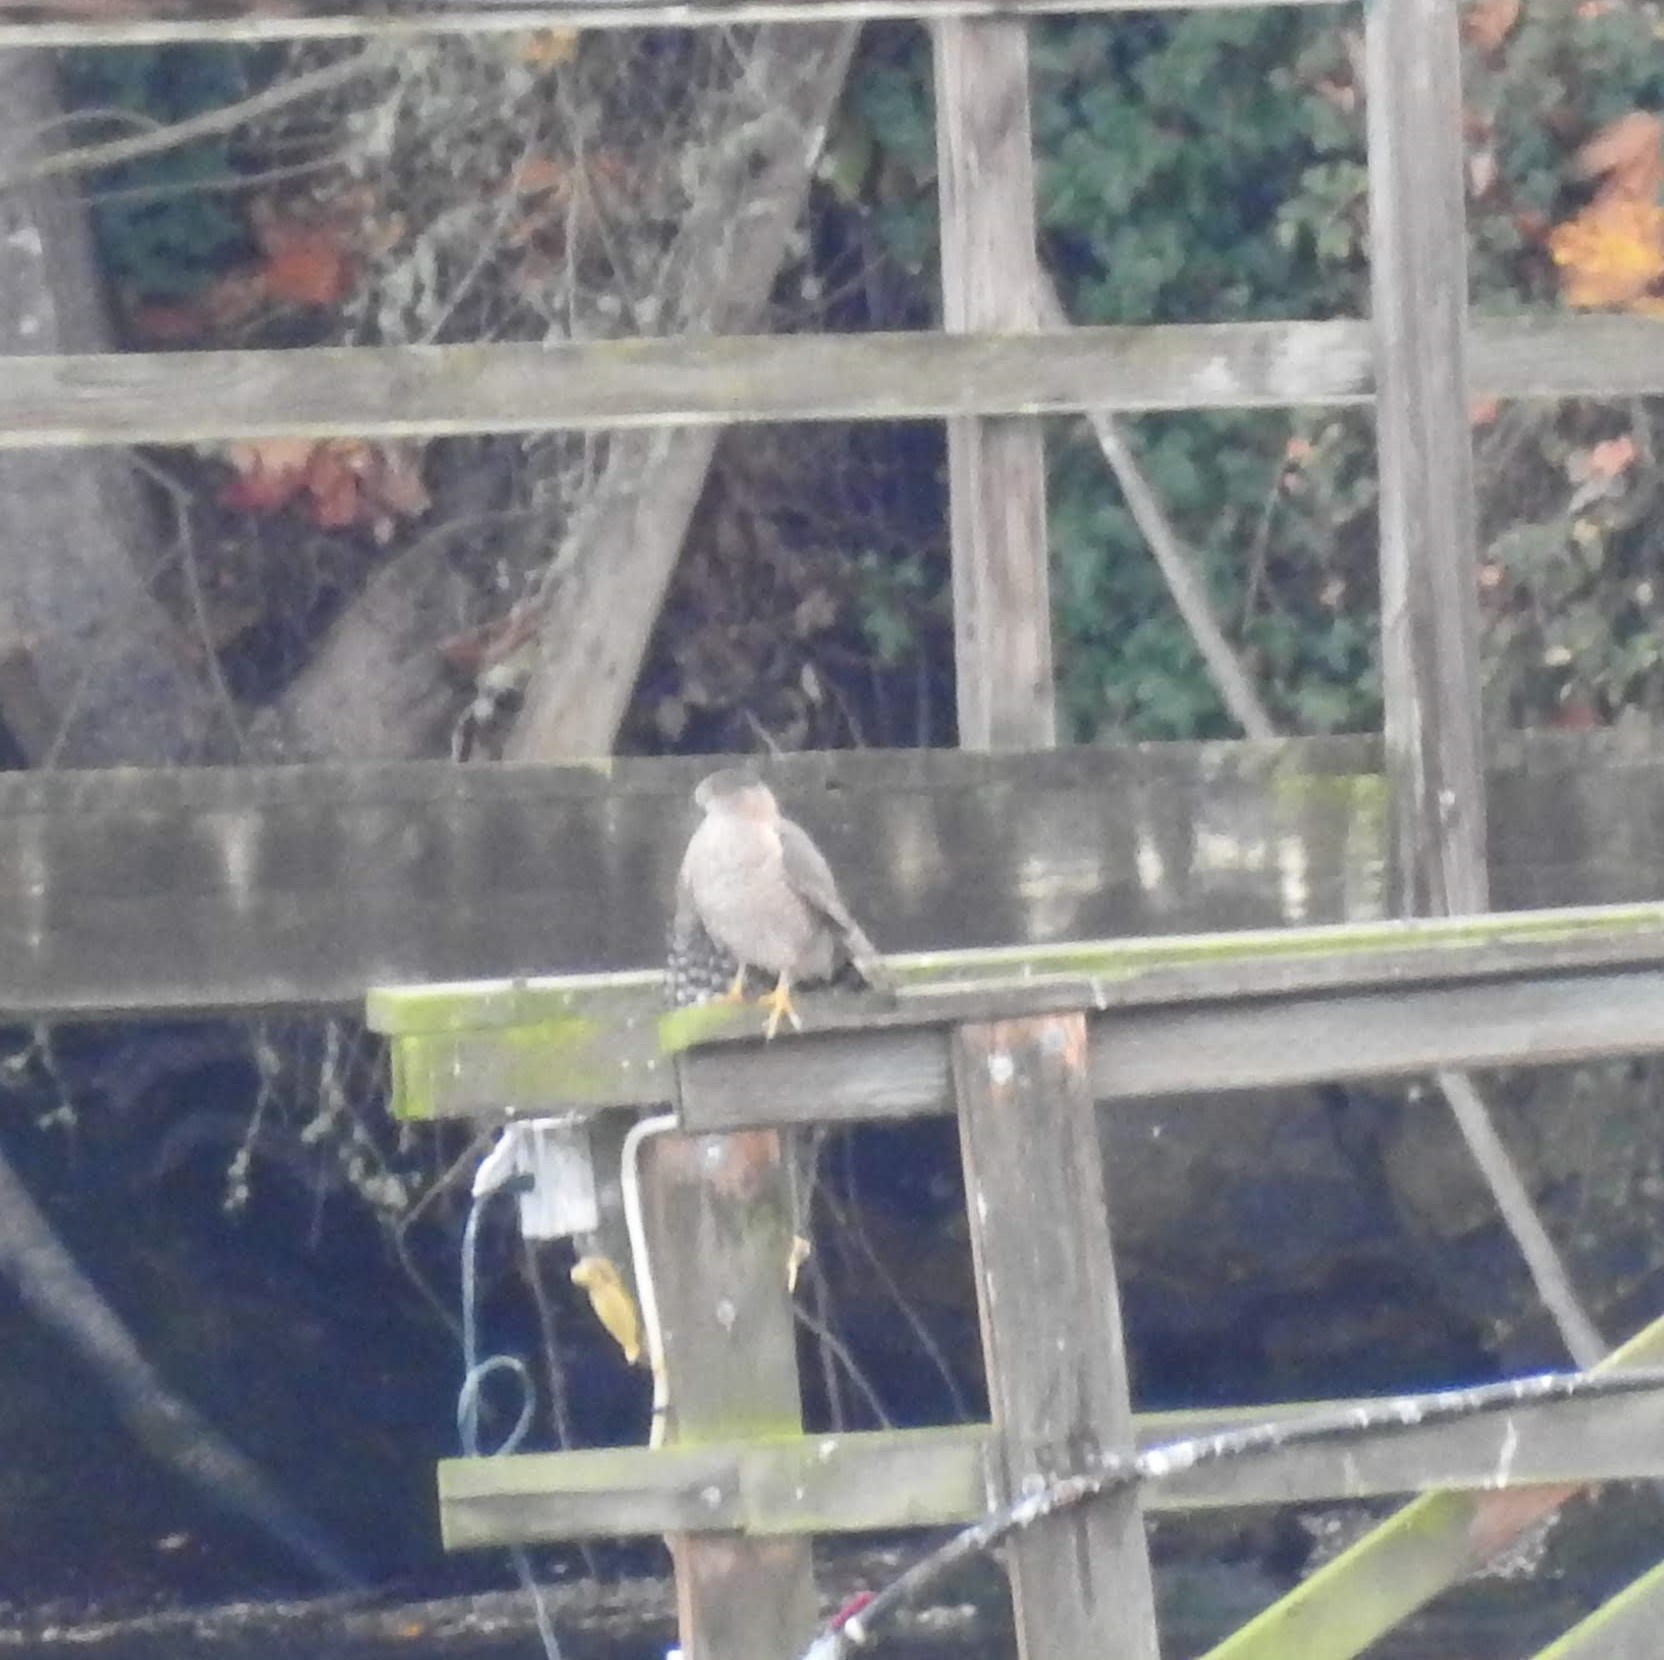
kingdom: Animalia
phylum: Chordata
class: Aves
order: Accipitriformes
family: Accipitridae
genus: Accipiter
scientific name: Accipiter cooperii
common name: Cooper's hawk
